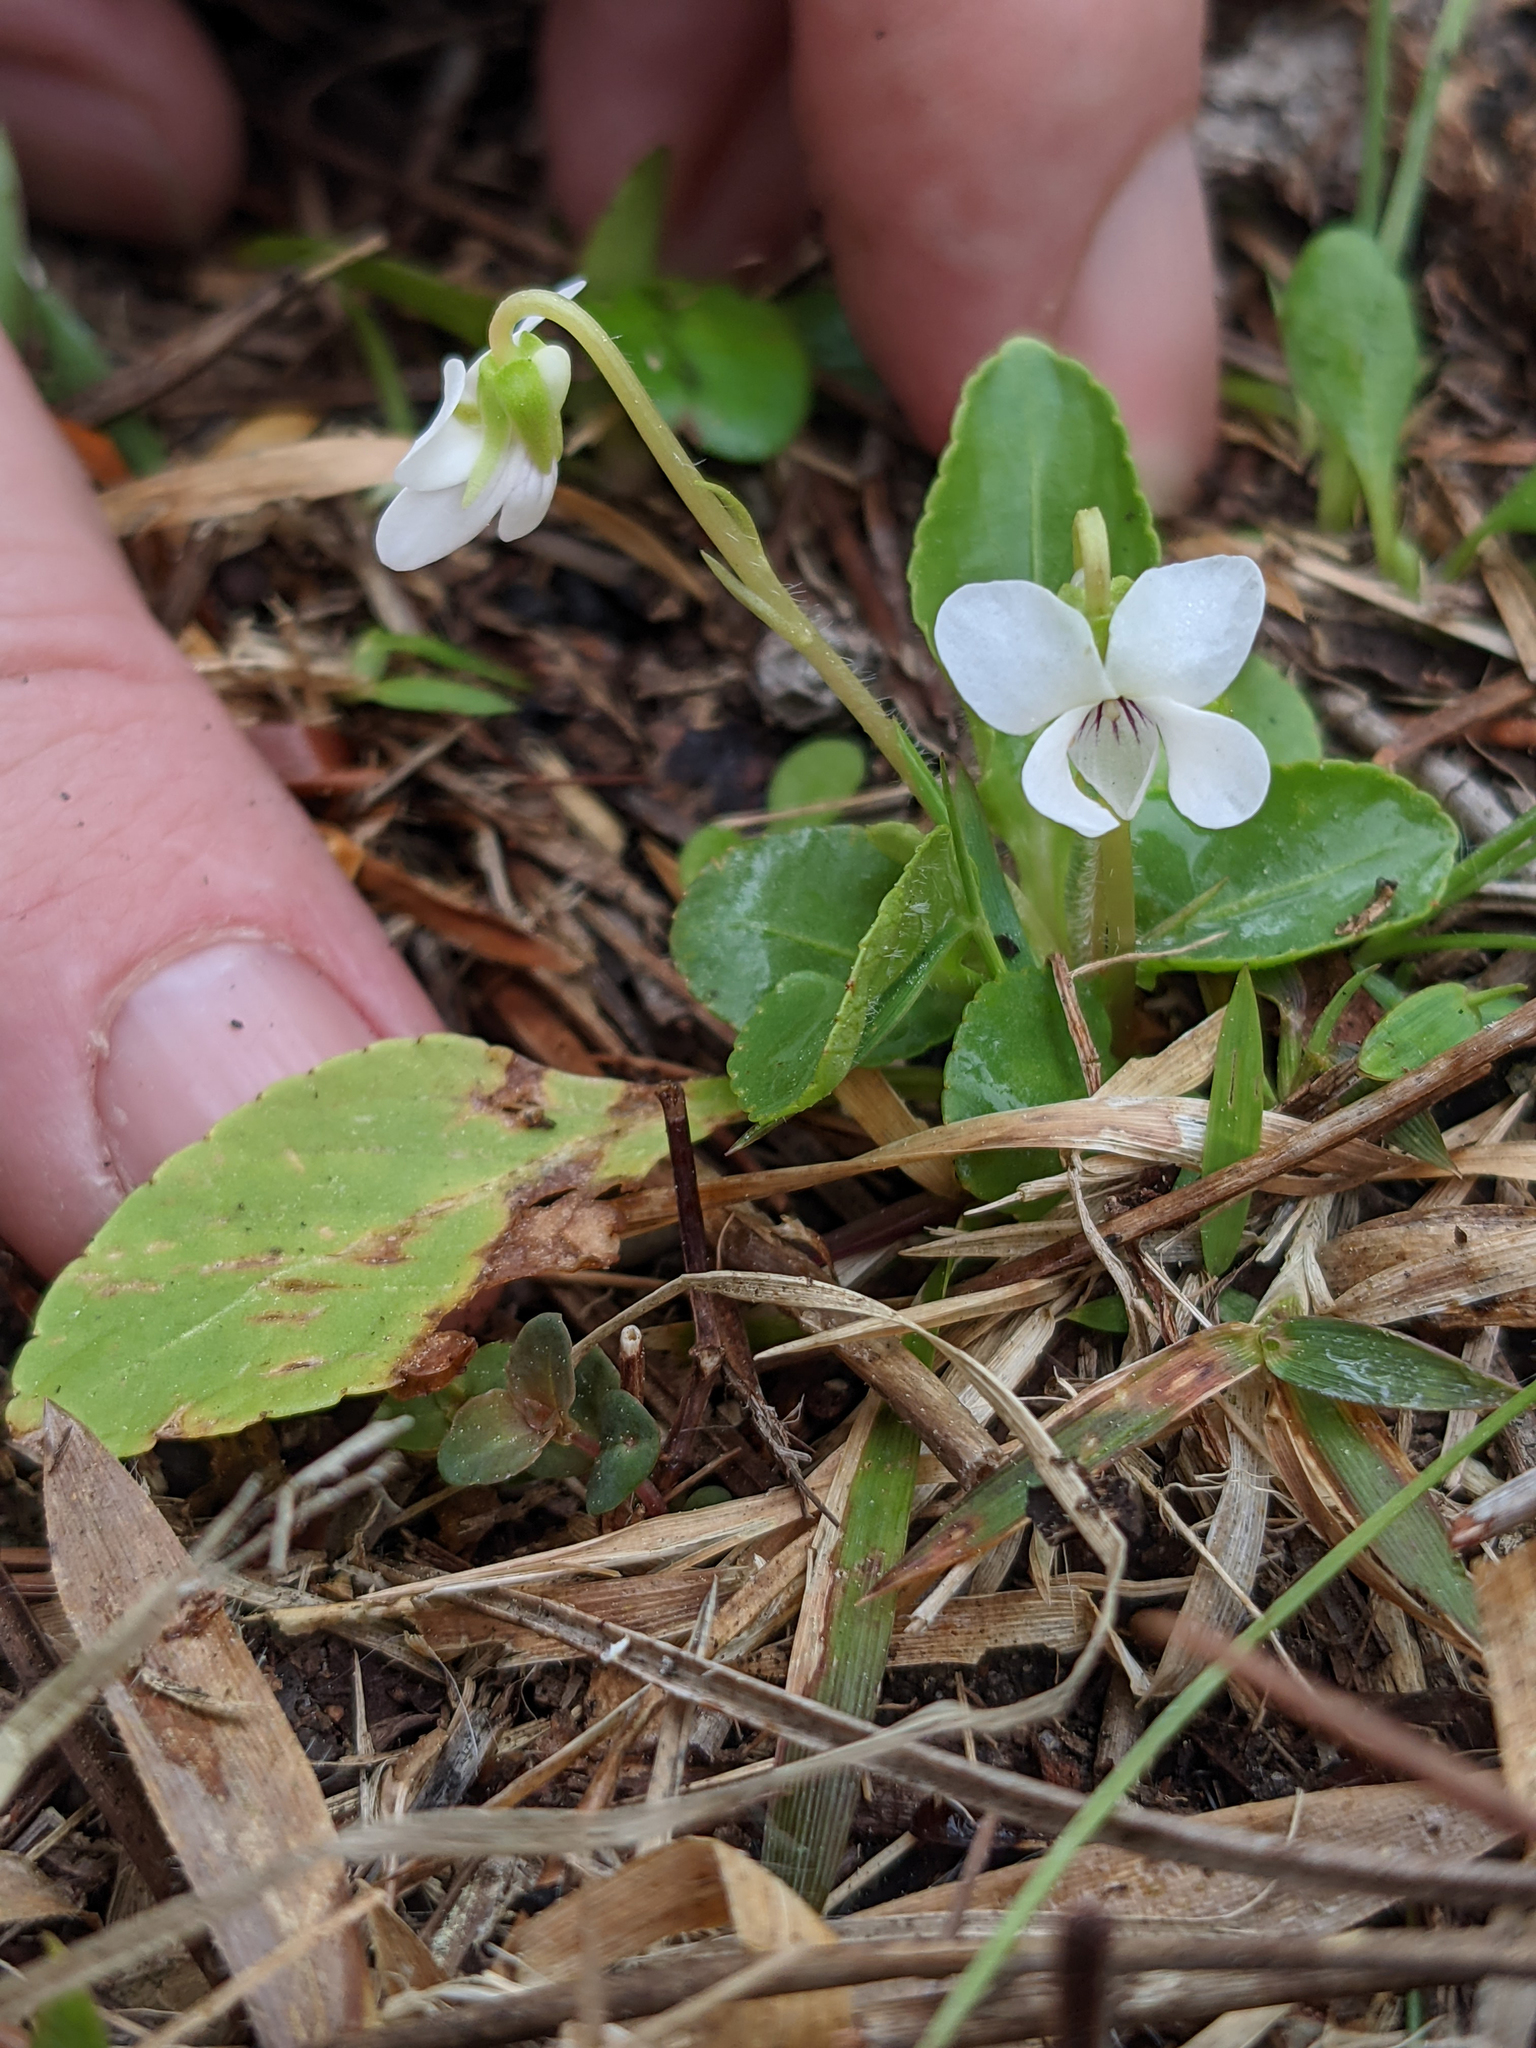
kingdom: Plantae
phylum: Tracheophyta
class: Magnoliopsida
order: Malpighiales
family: Violaceae
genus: Viola
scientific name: Viola primulifolia
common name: Primrose-leaf violet
